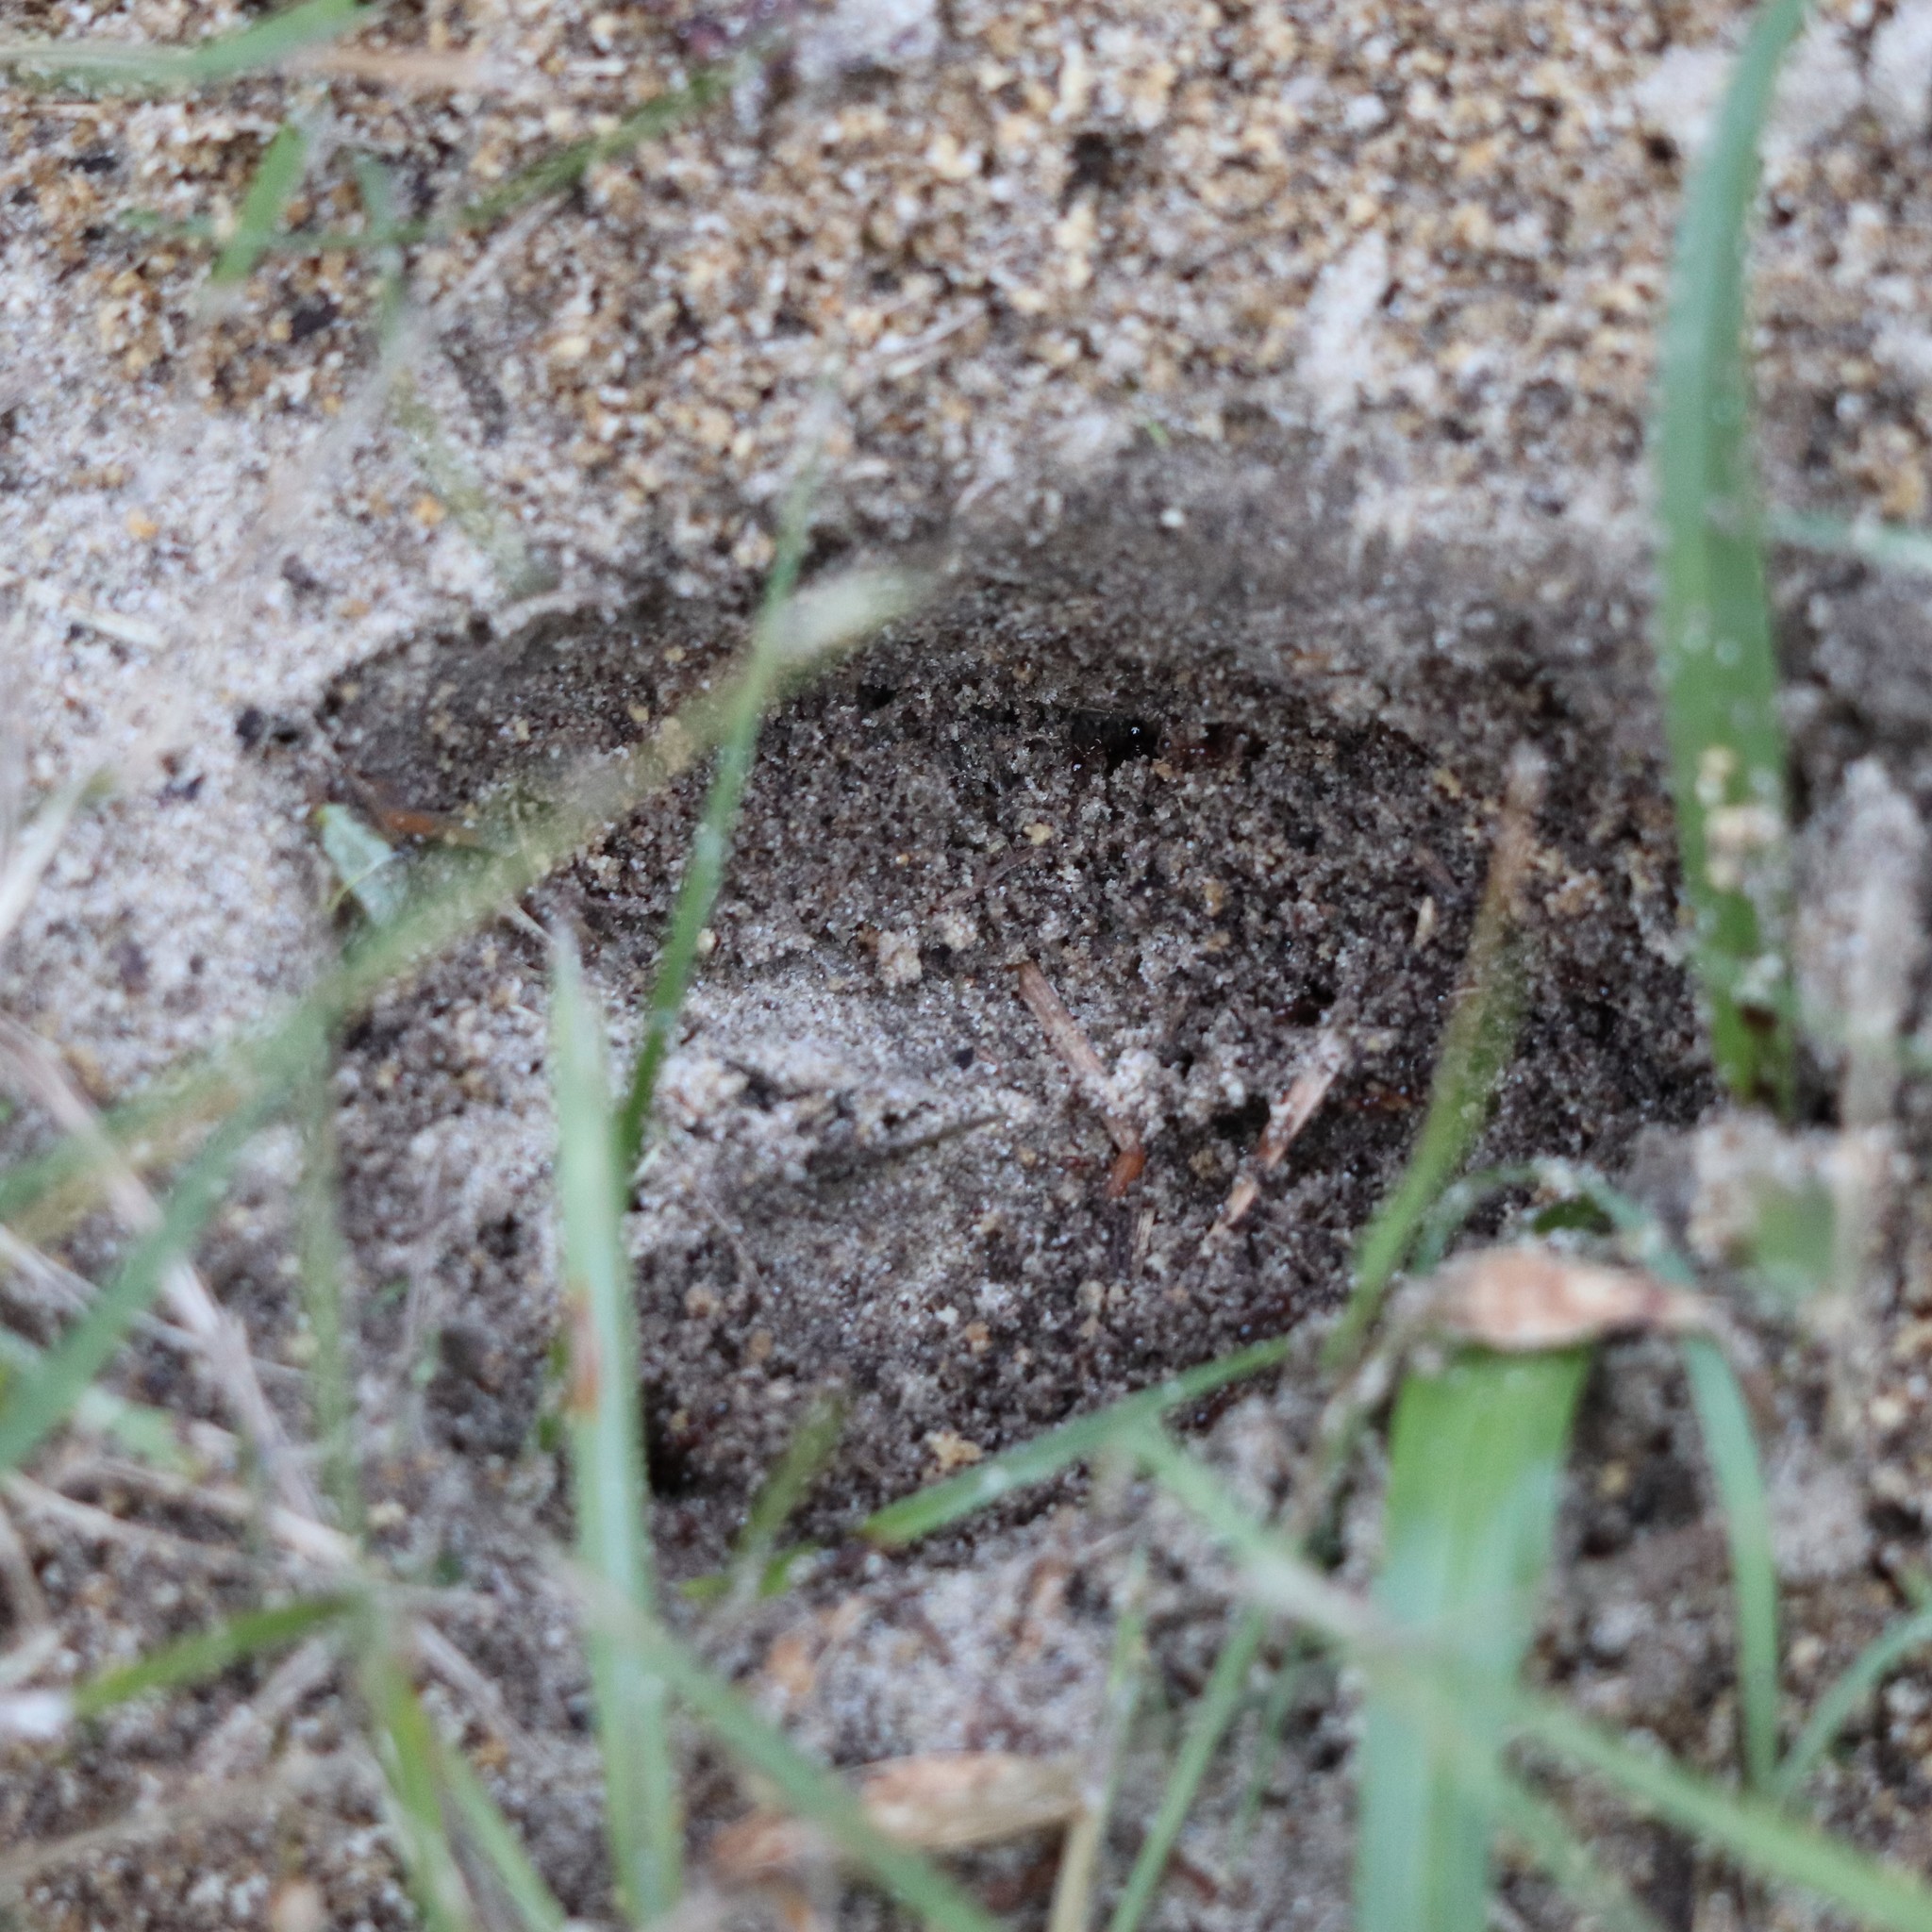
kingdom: Animalia
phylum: Chordata
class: Mammalia
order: Artiodactyla
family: Cervidae
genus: Odocoileus
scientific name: Odocoileus virginianus
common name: White-tailed deer
